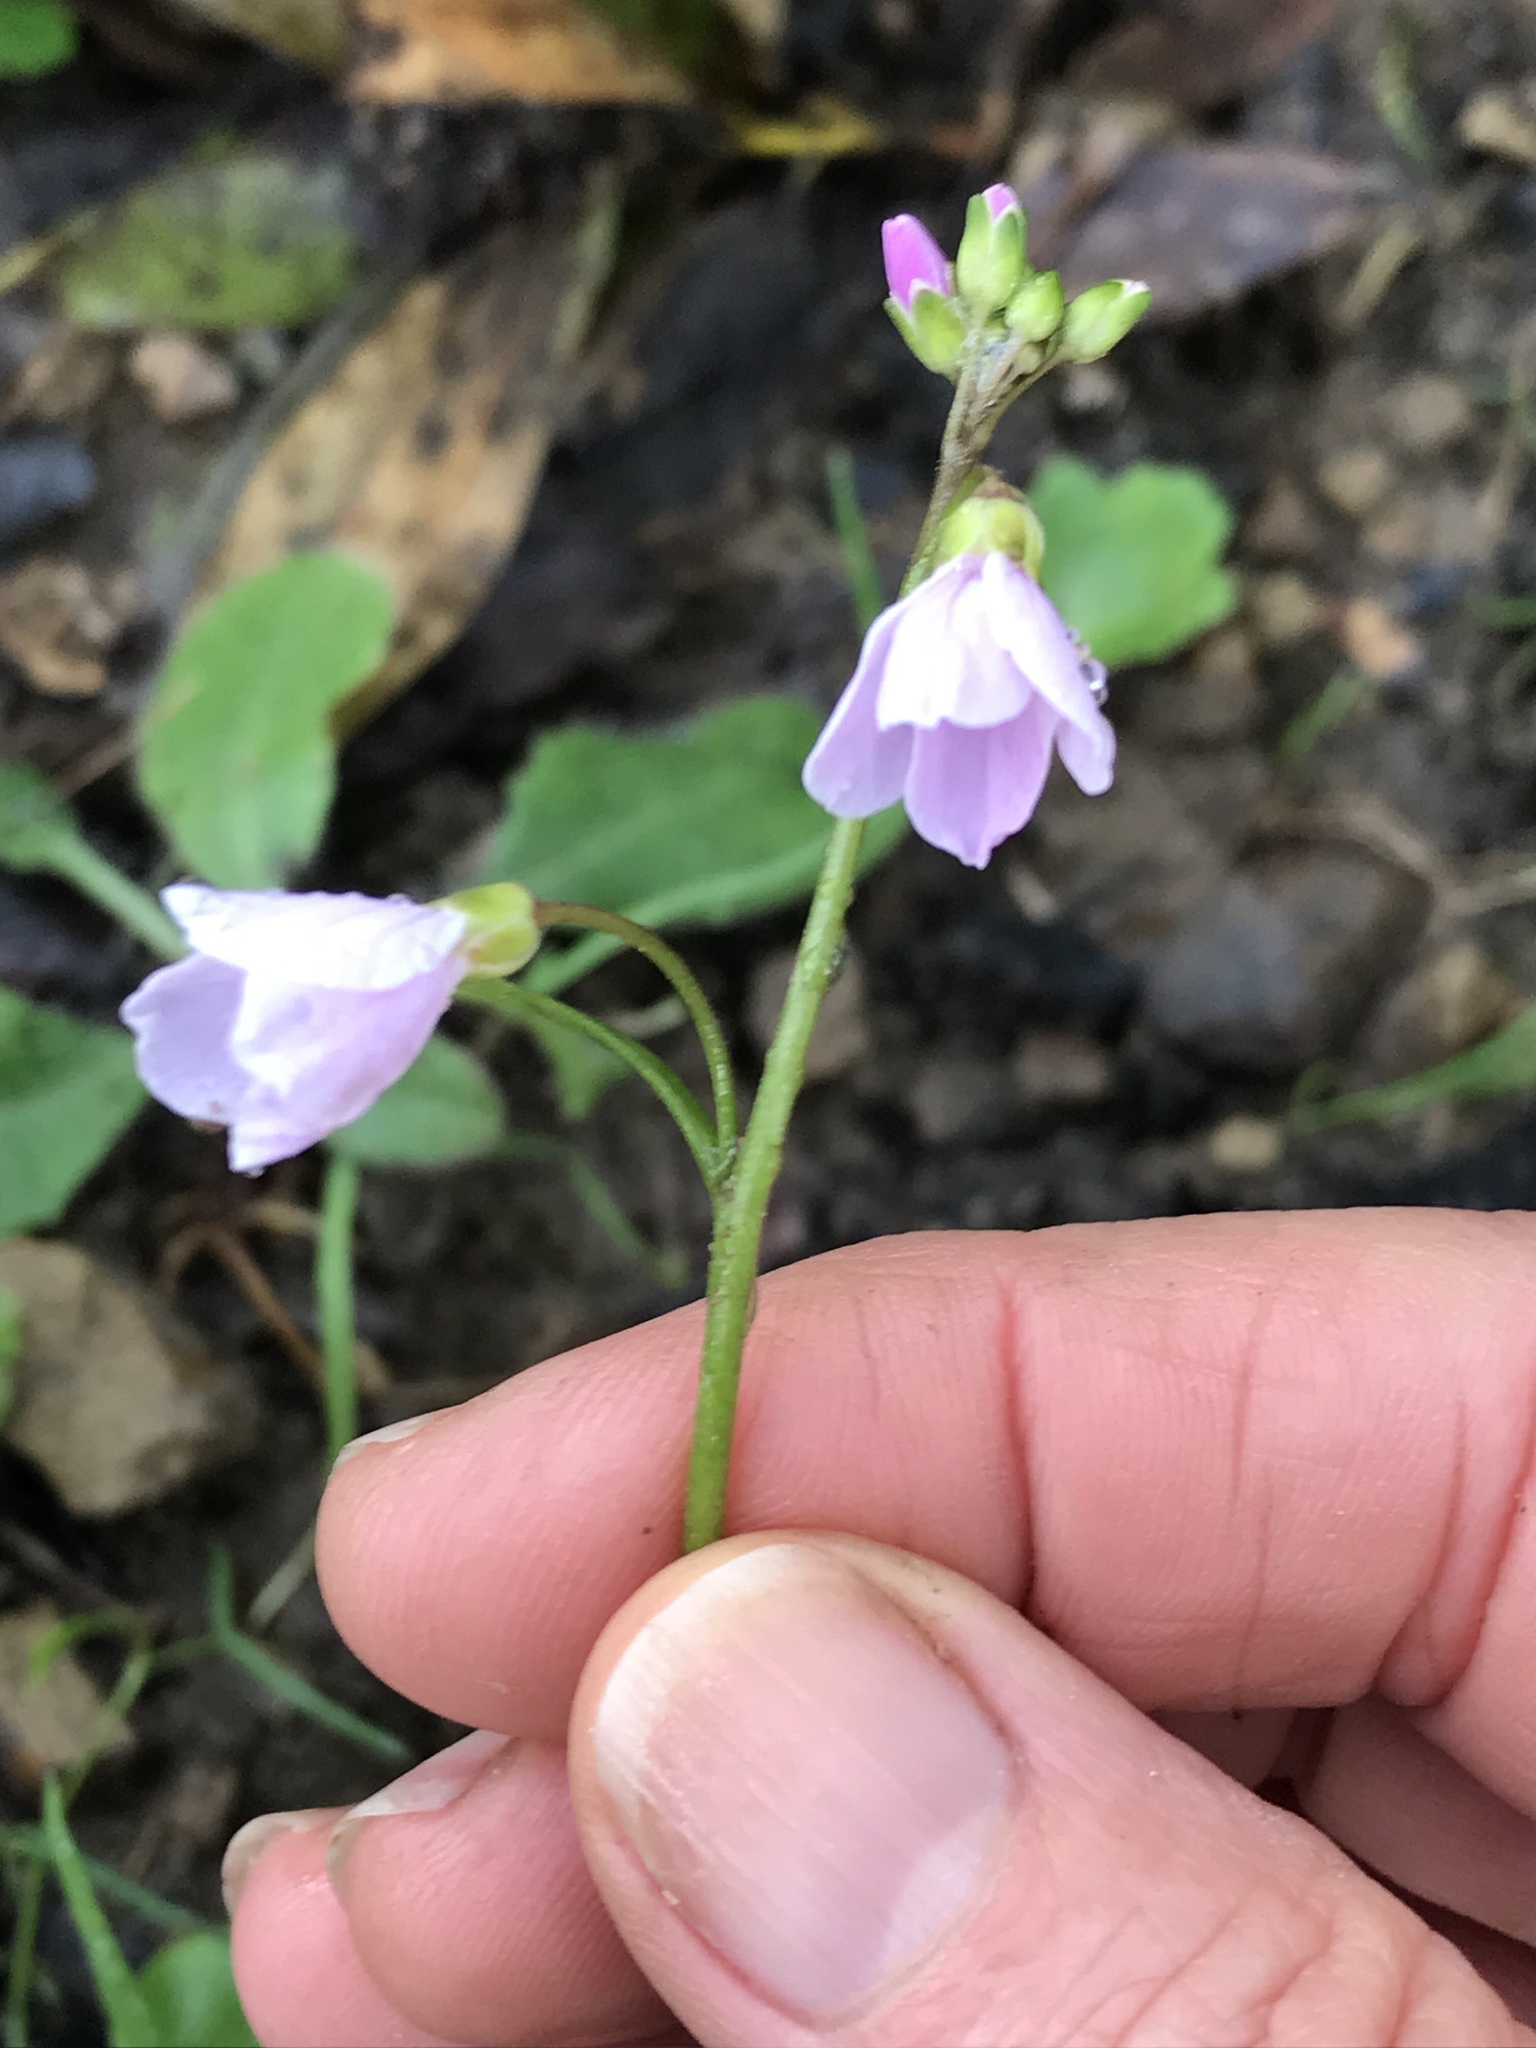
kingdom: Plantae
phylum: Tracheophyta
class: Magnoliopsida
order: Brassicales
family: Brassicaceae
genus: Cardamine
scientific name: Cardamine californica
